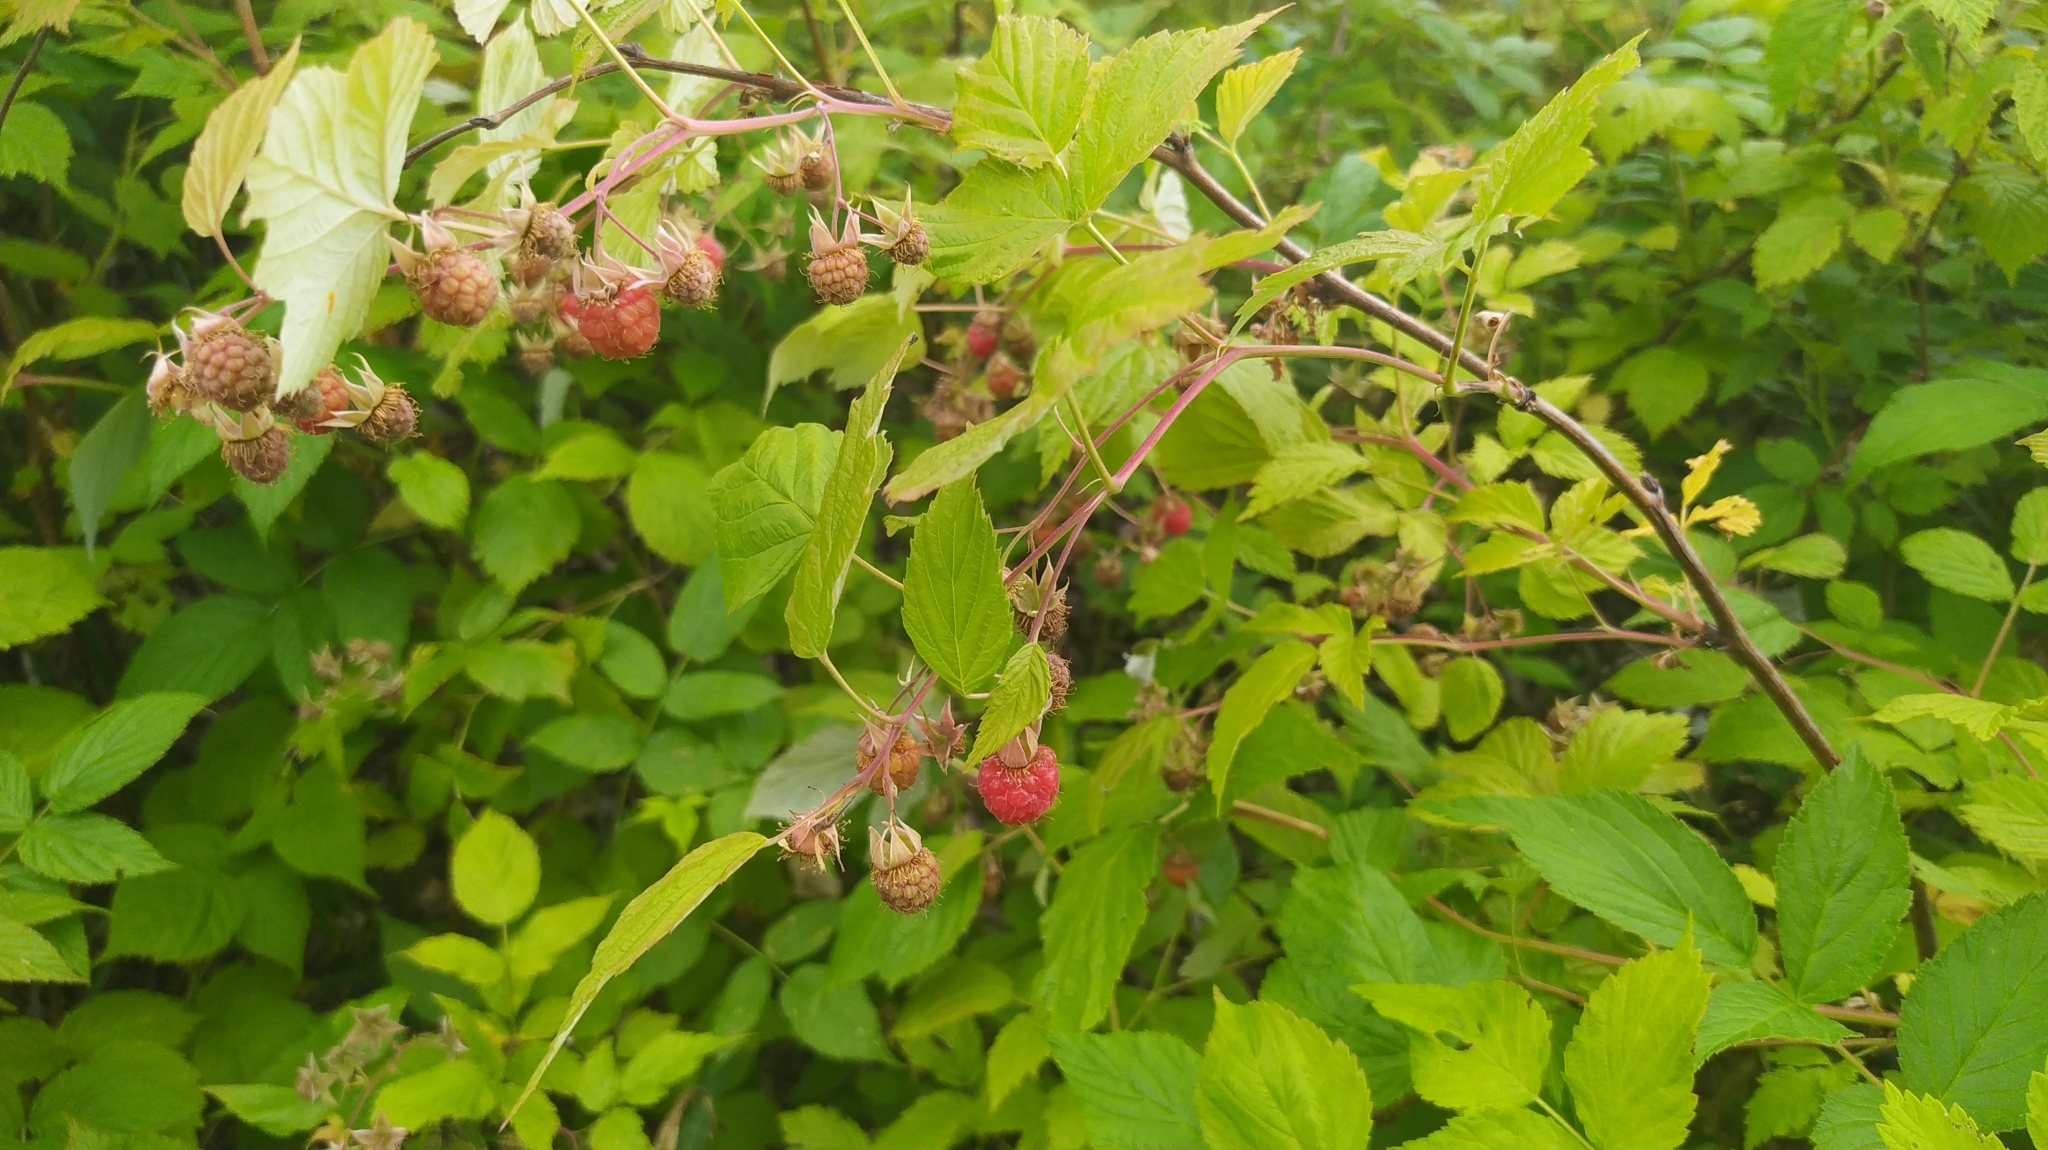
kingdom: Plantae
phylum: Tracheophyta
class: Magnoliopsida
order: Rosales
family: Rosaceae
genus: Rubus
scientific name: Rubus idaeus
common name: Raspberry
